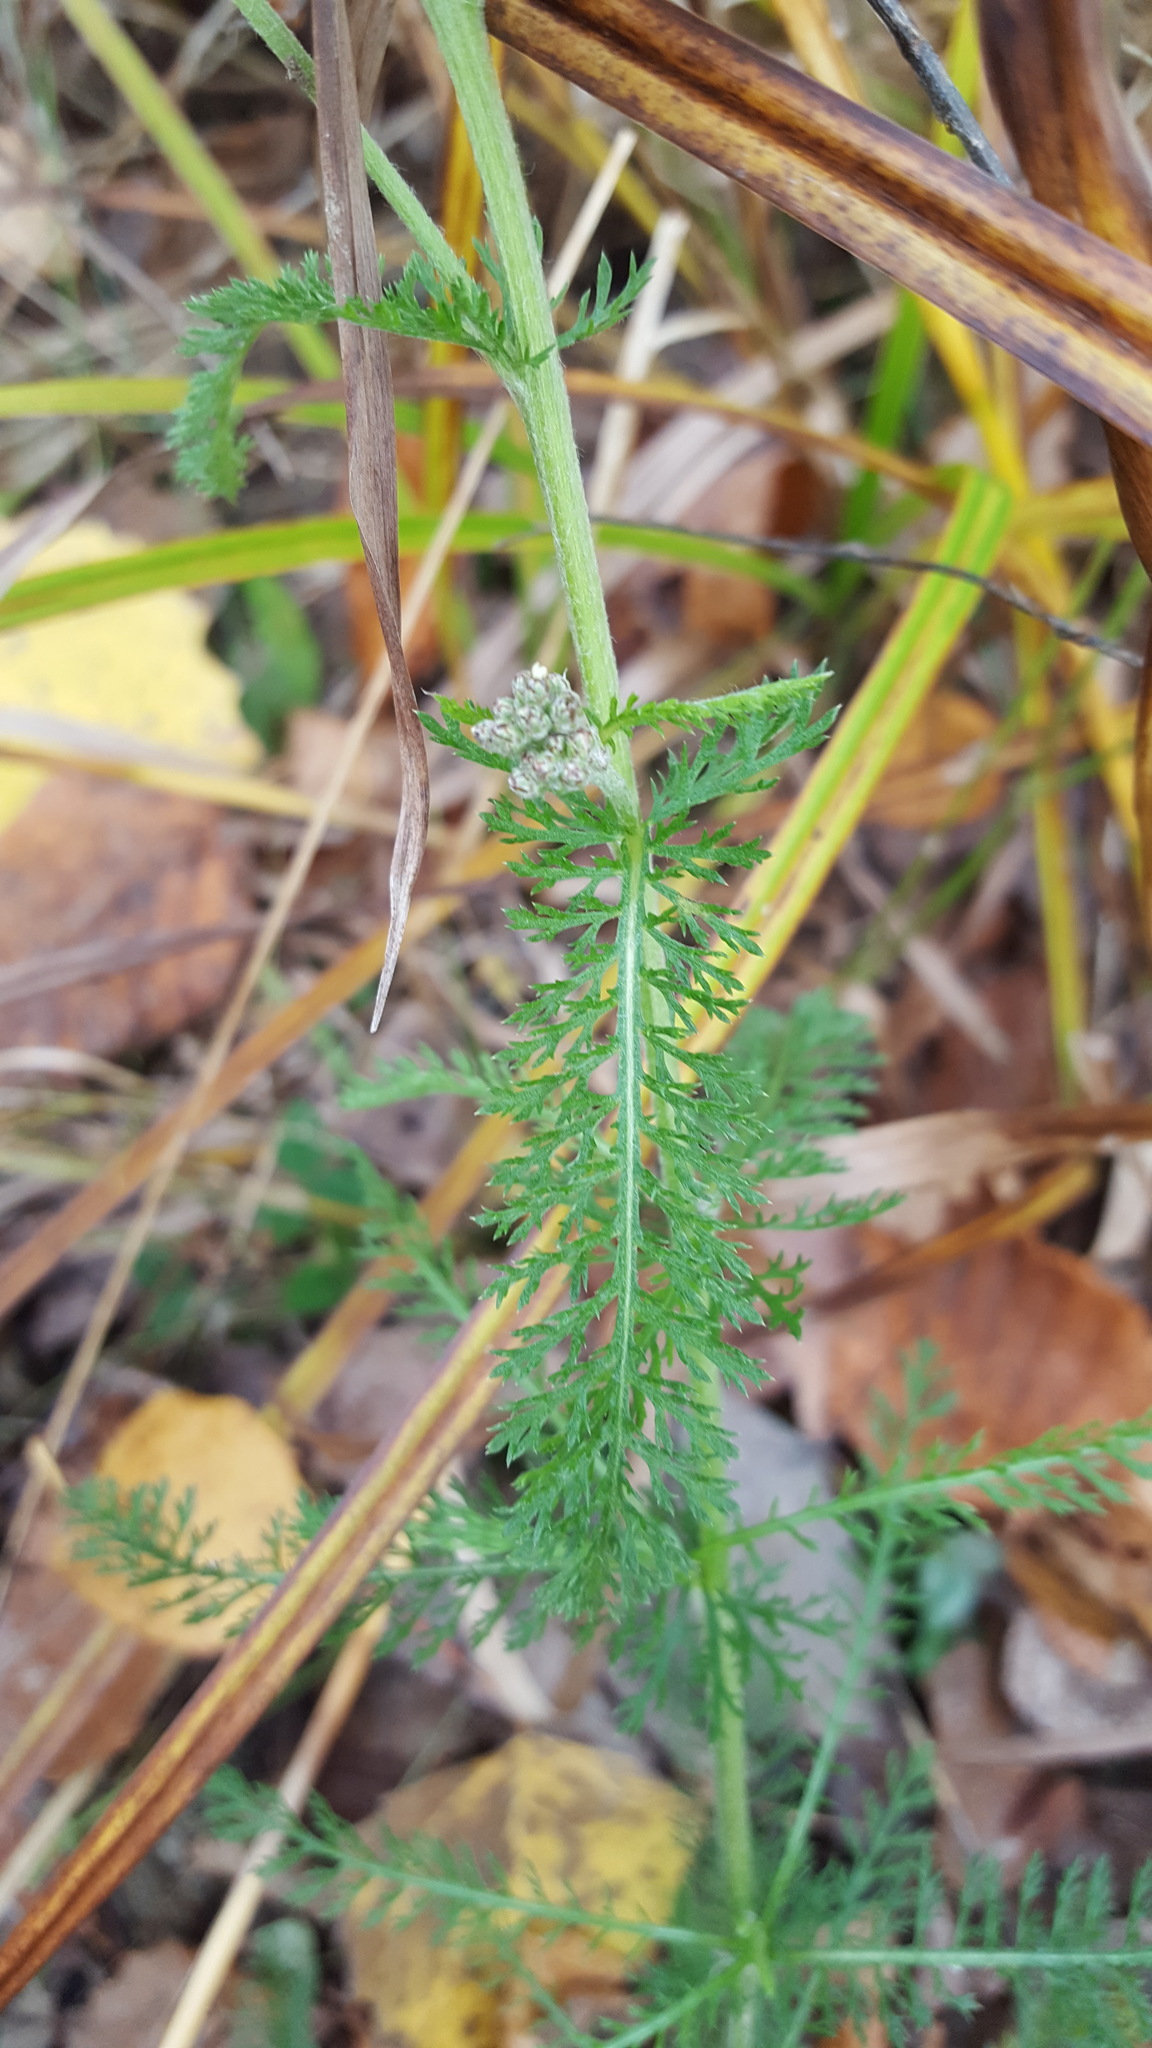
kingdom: Plantae
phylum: Tracheophyta
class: Magnoliopsida
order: Asterales
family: Asteraceae
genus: Achillea
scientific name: Achillea millefolium
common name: Yarrow
